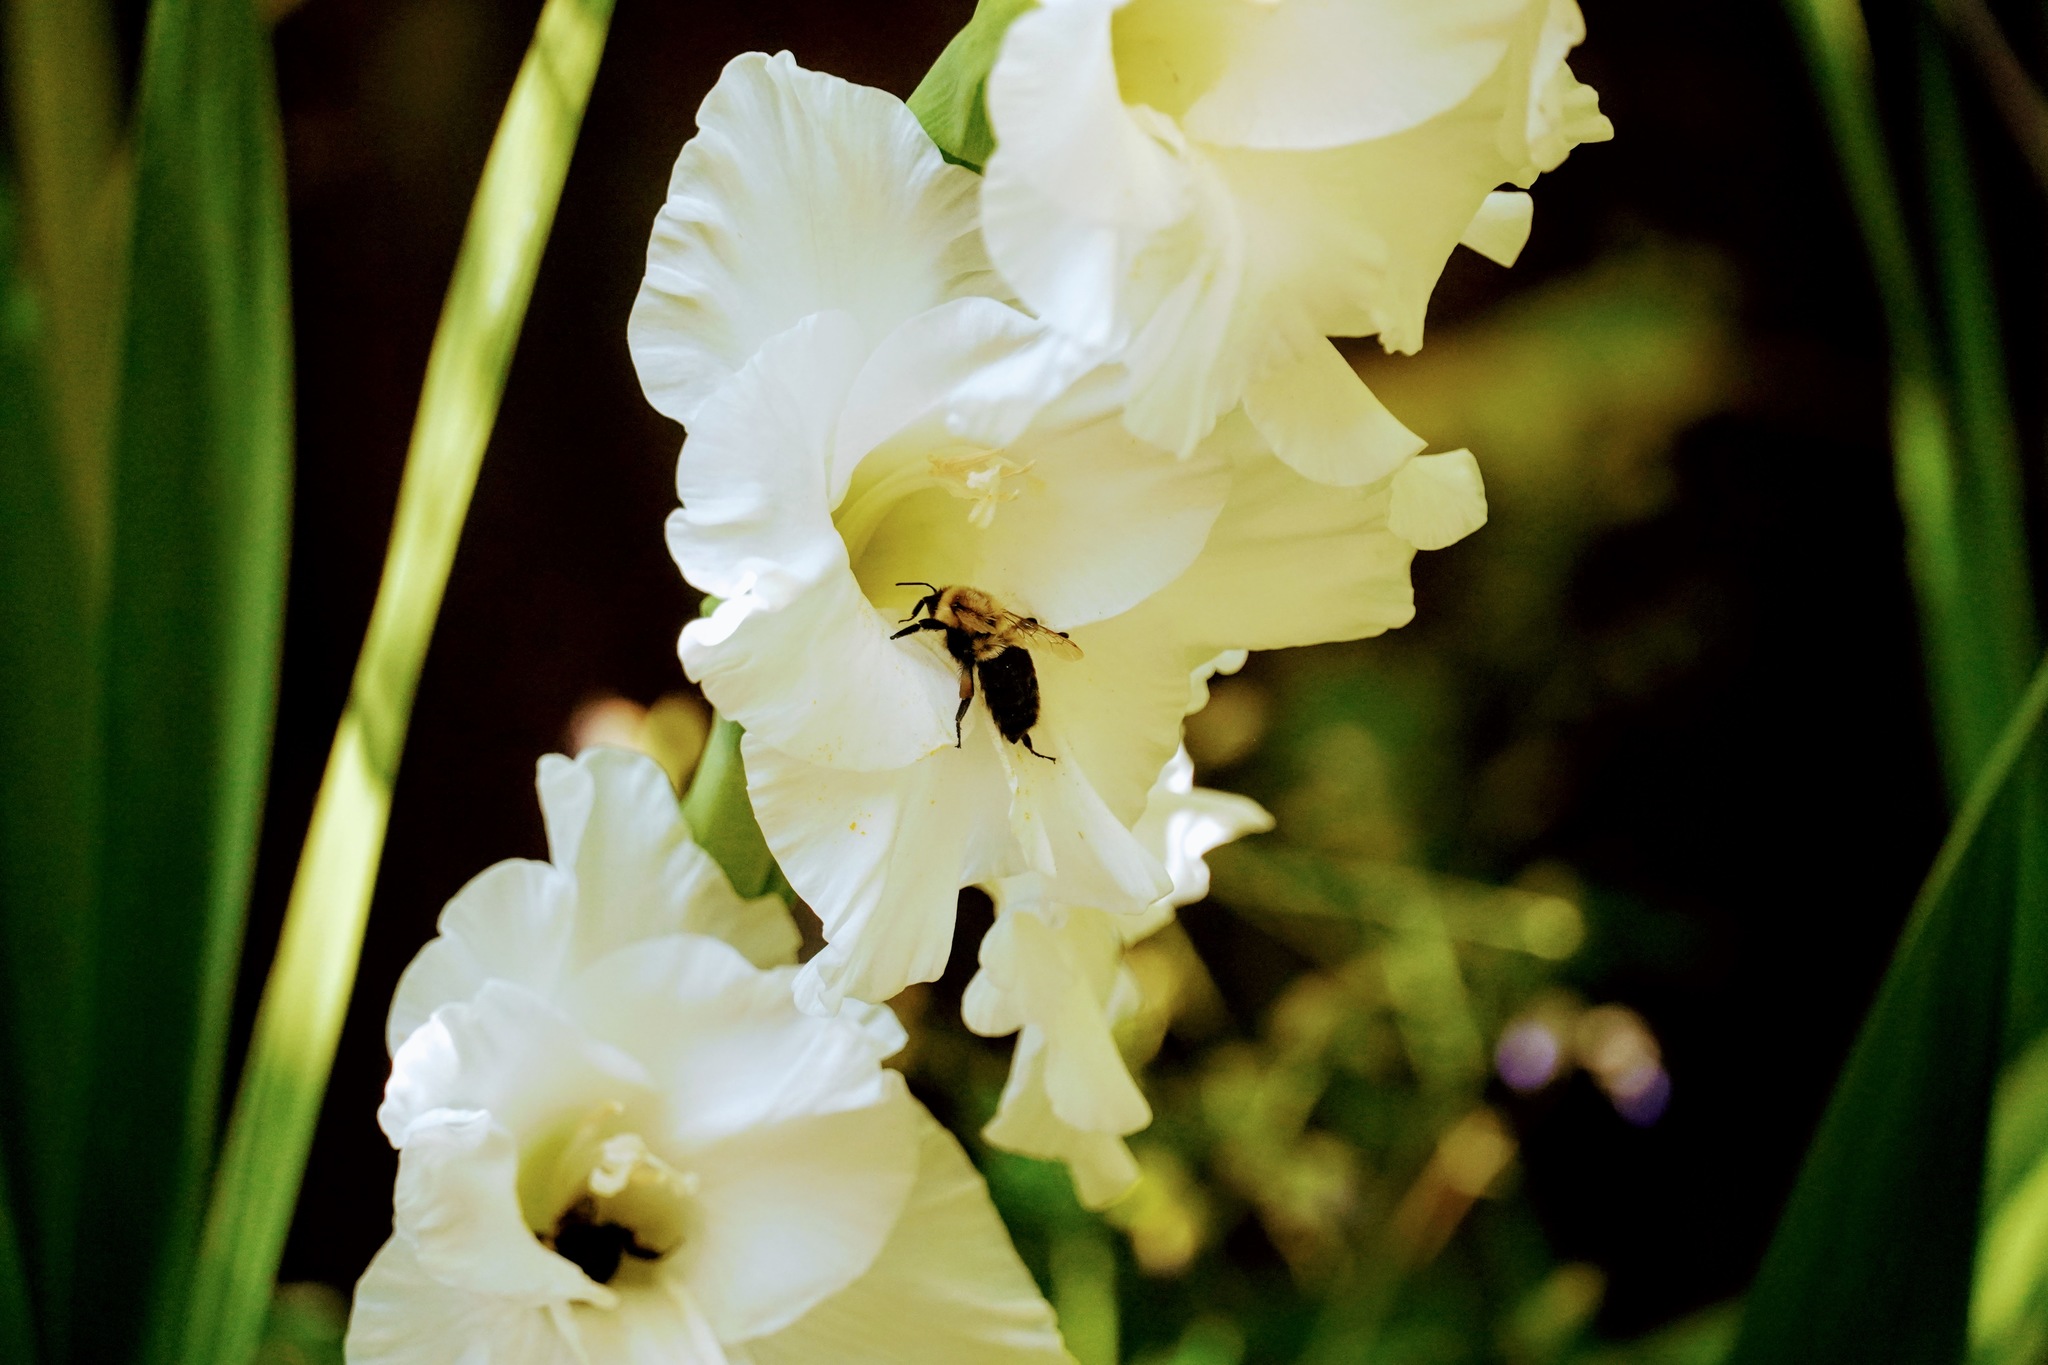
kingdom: Animalia
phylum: Arthropoda
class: Insecta
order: Hymenoptera
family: Apidae
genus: Bombus
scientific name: Bombus impatiens
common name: Common eastern bumble bee
